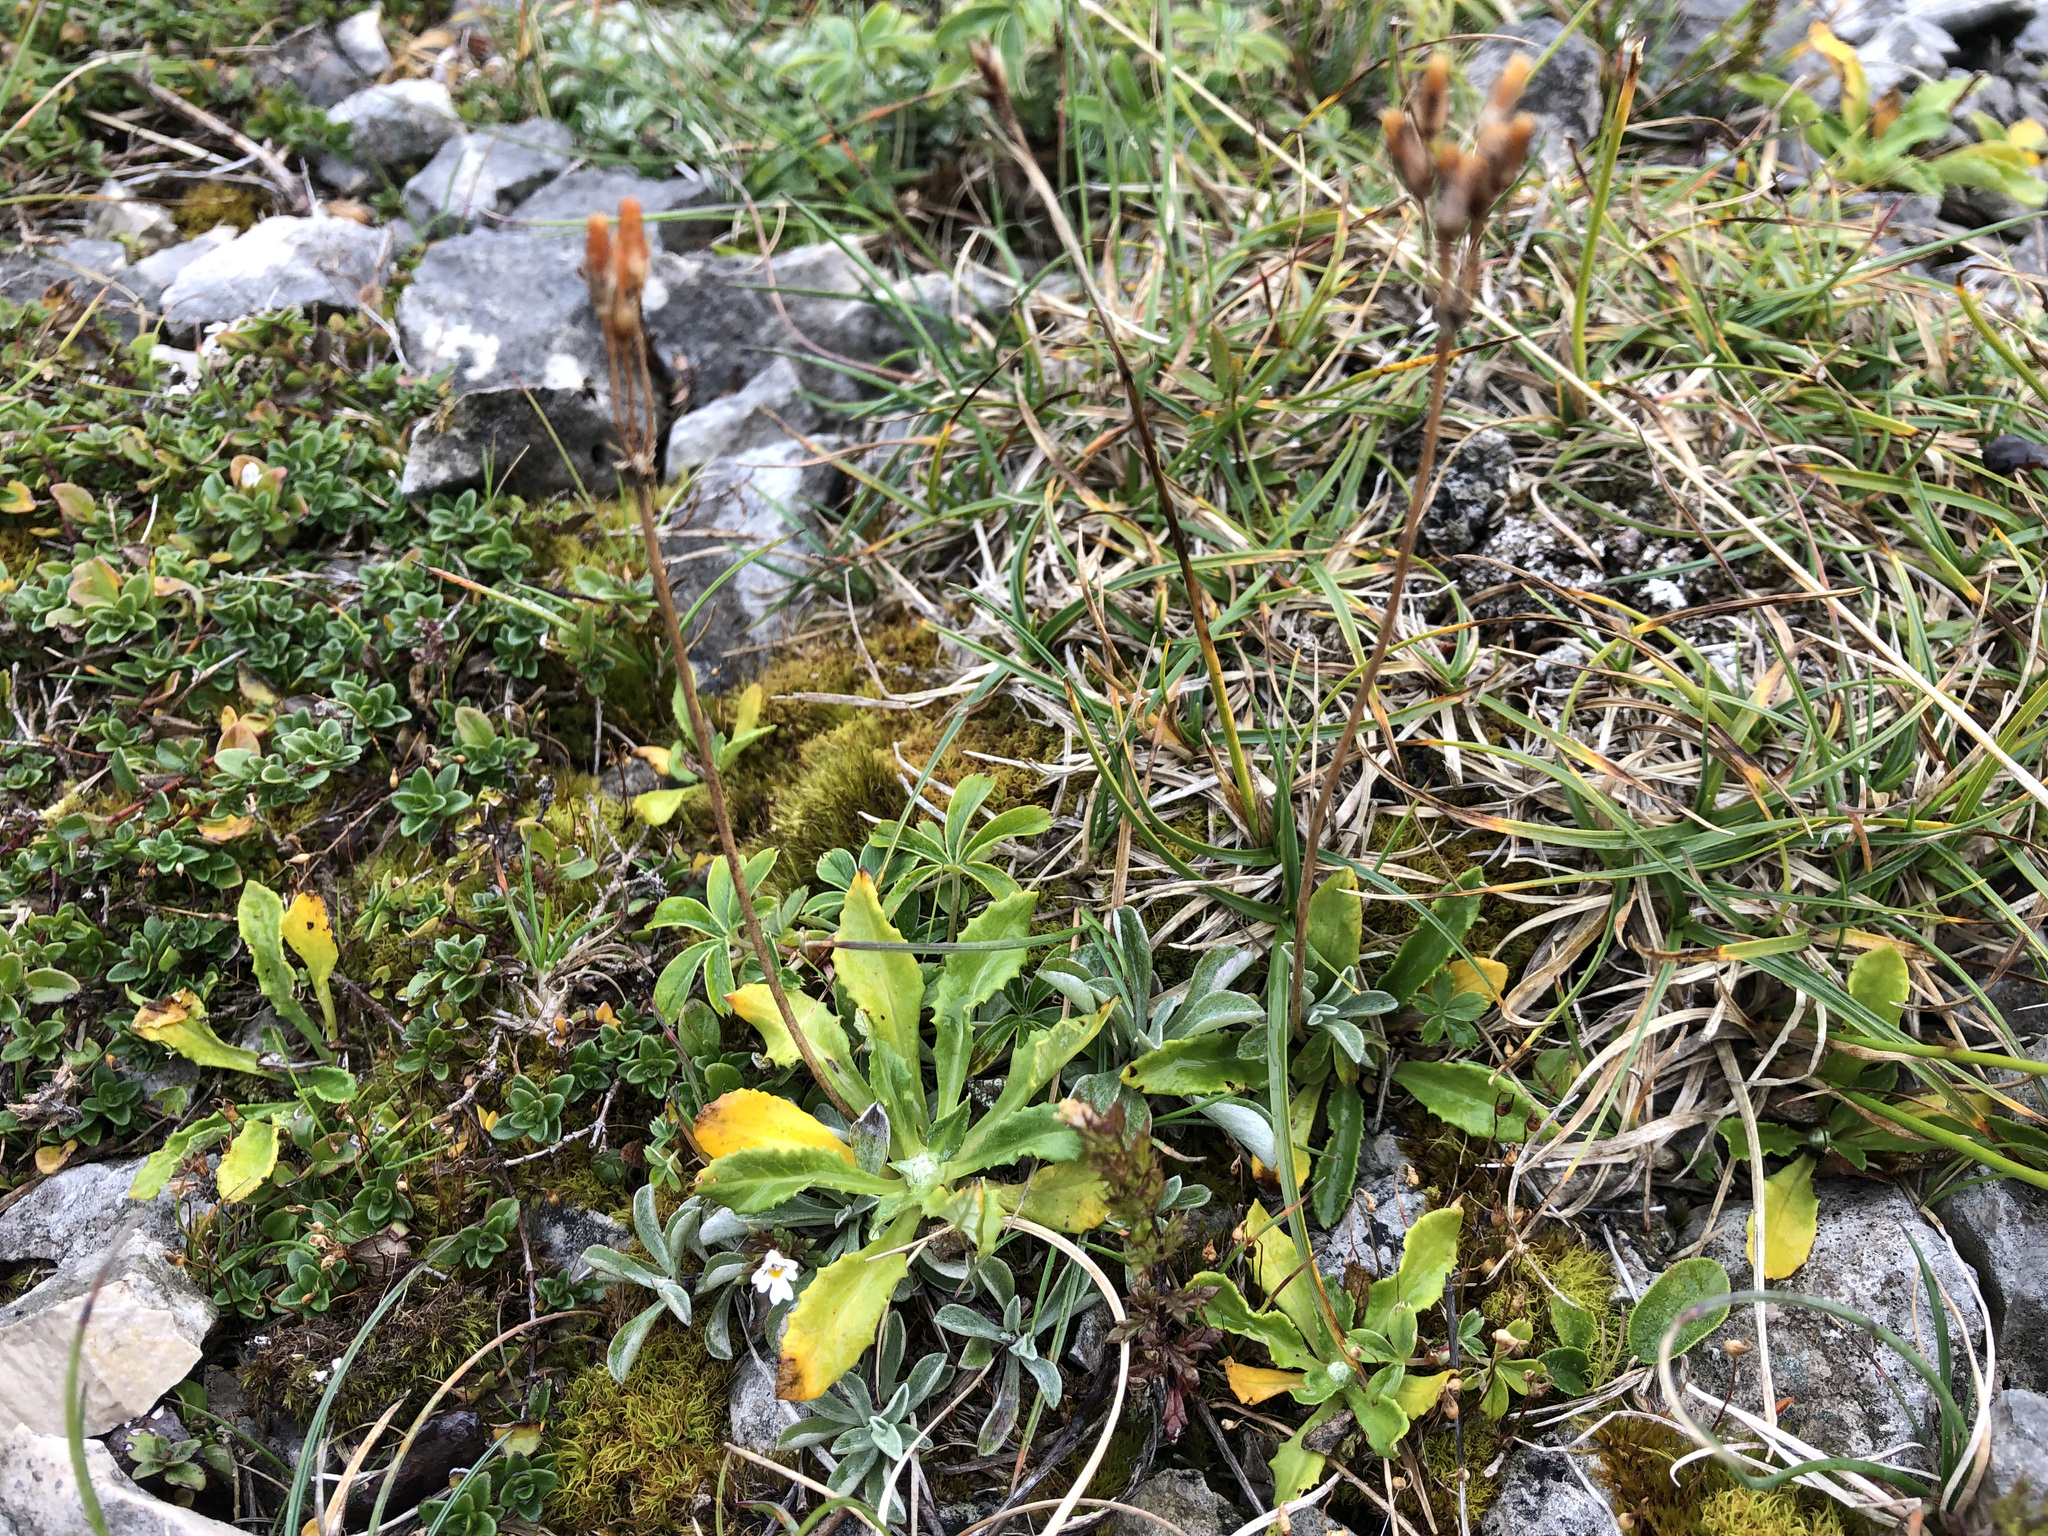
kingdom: Plantae
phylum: Tracheophyta
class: Magnoliopsida
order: Ericales
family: Primulaceae
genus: Primula
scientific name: Primula farinosa
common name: Bird's-eye primrose
